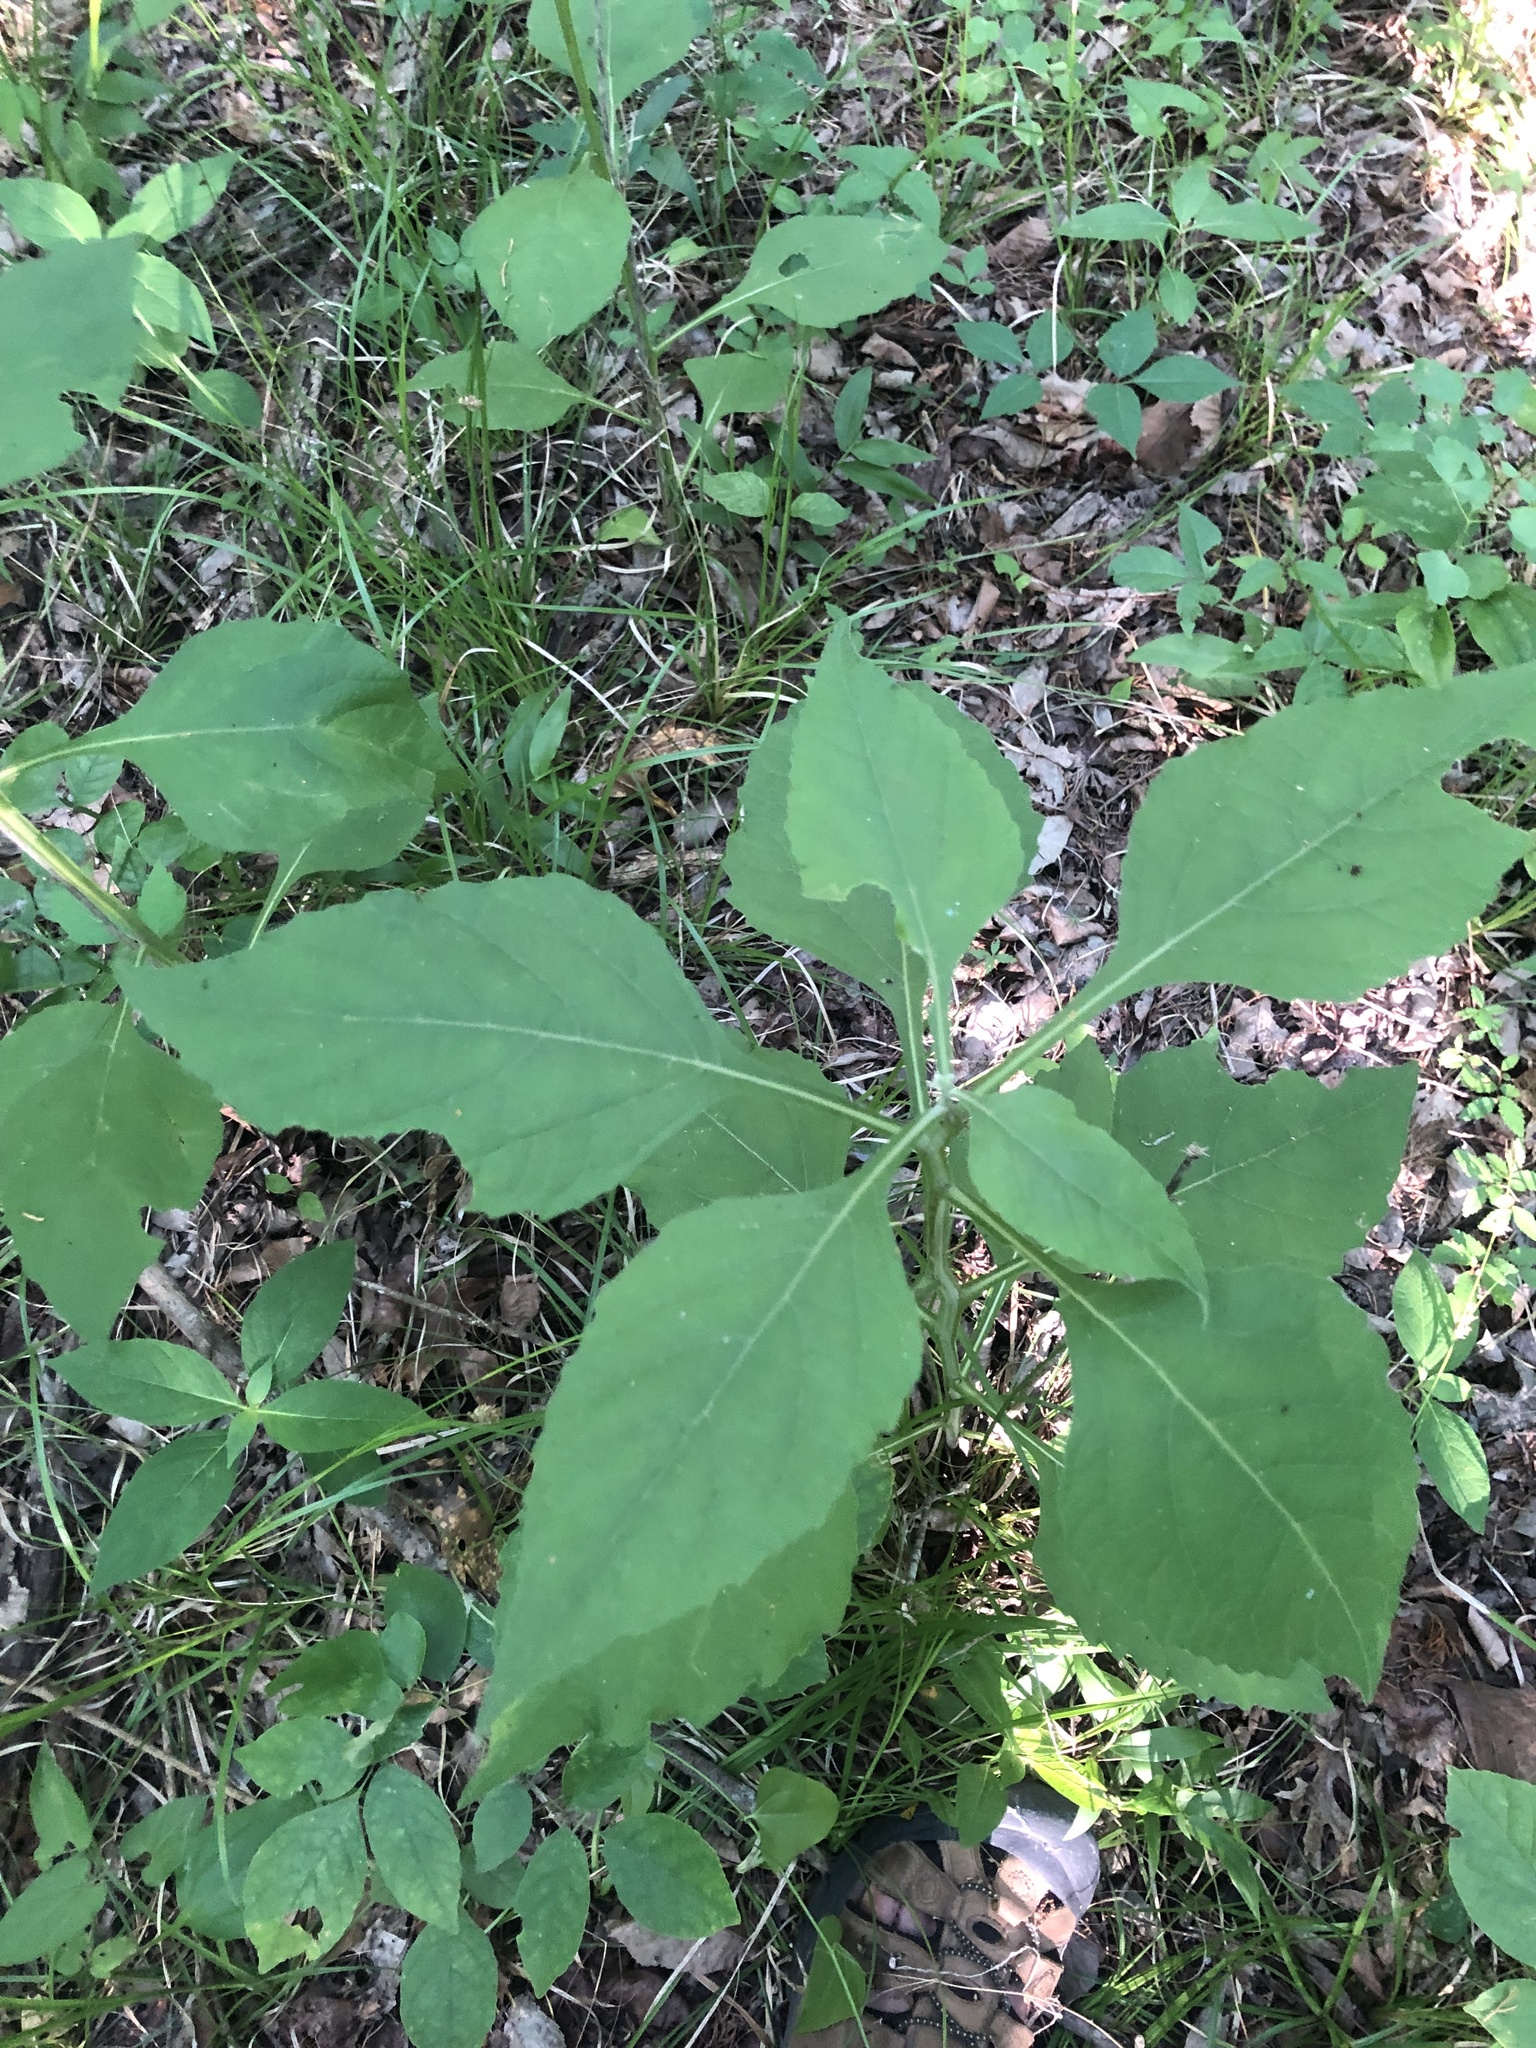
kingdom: Plantae
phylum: Tracheophyta
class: Magnoliopsida
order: Asterales
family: Asteraceae
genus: Verbesina
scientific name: Verbesina virginica
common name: Frostweed
